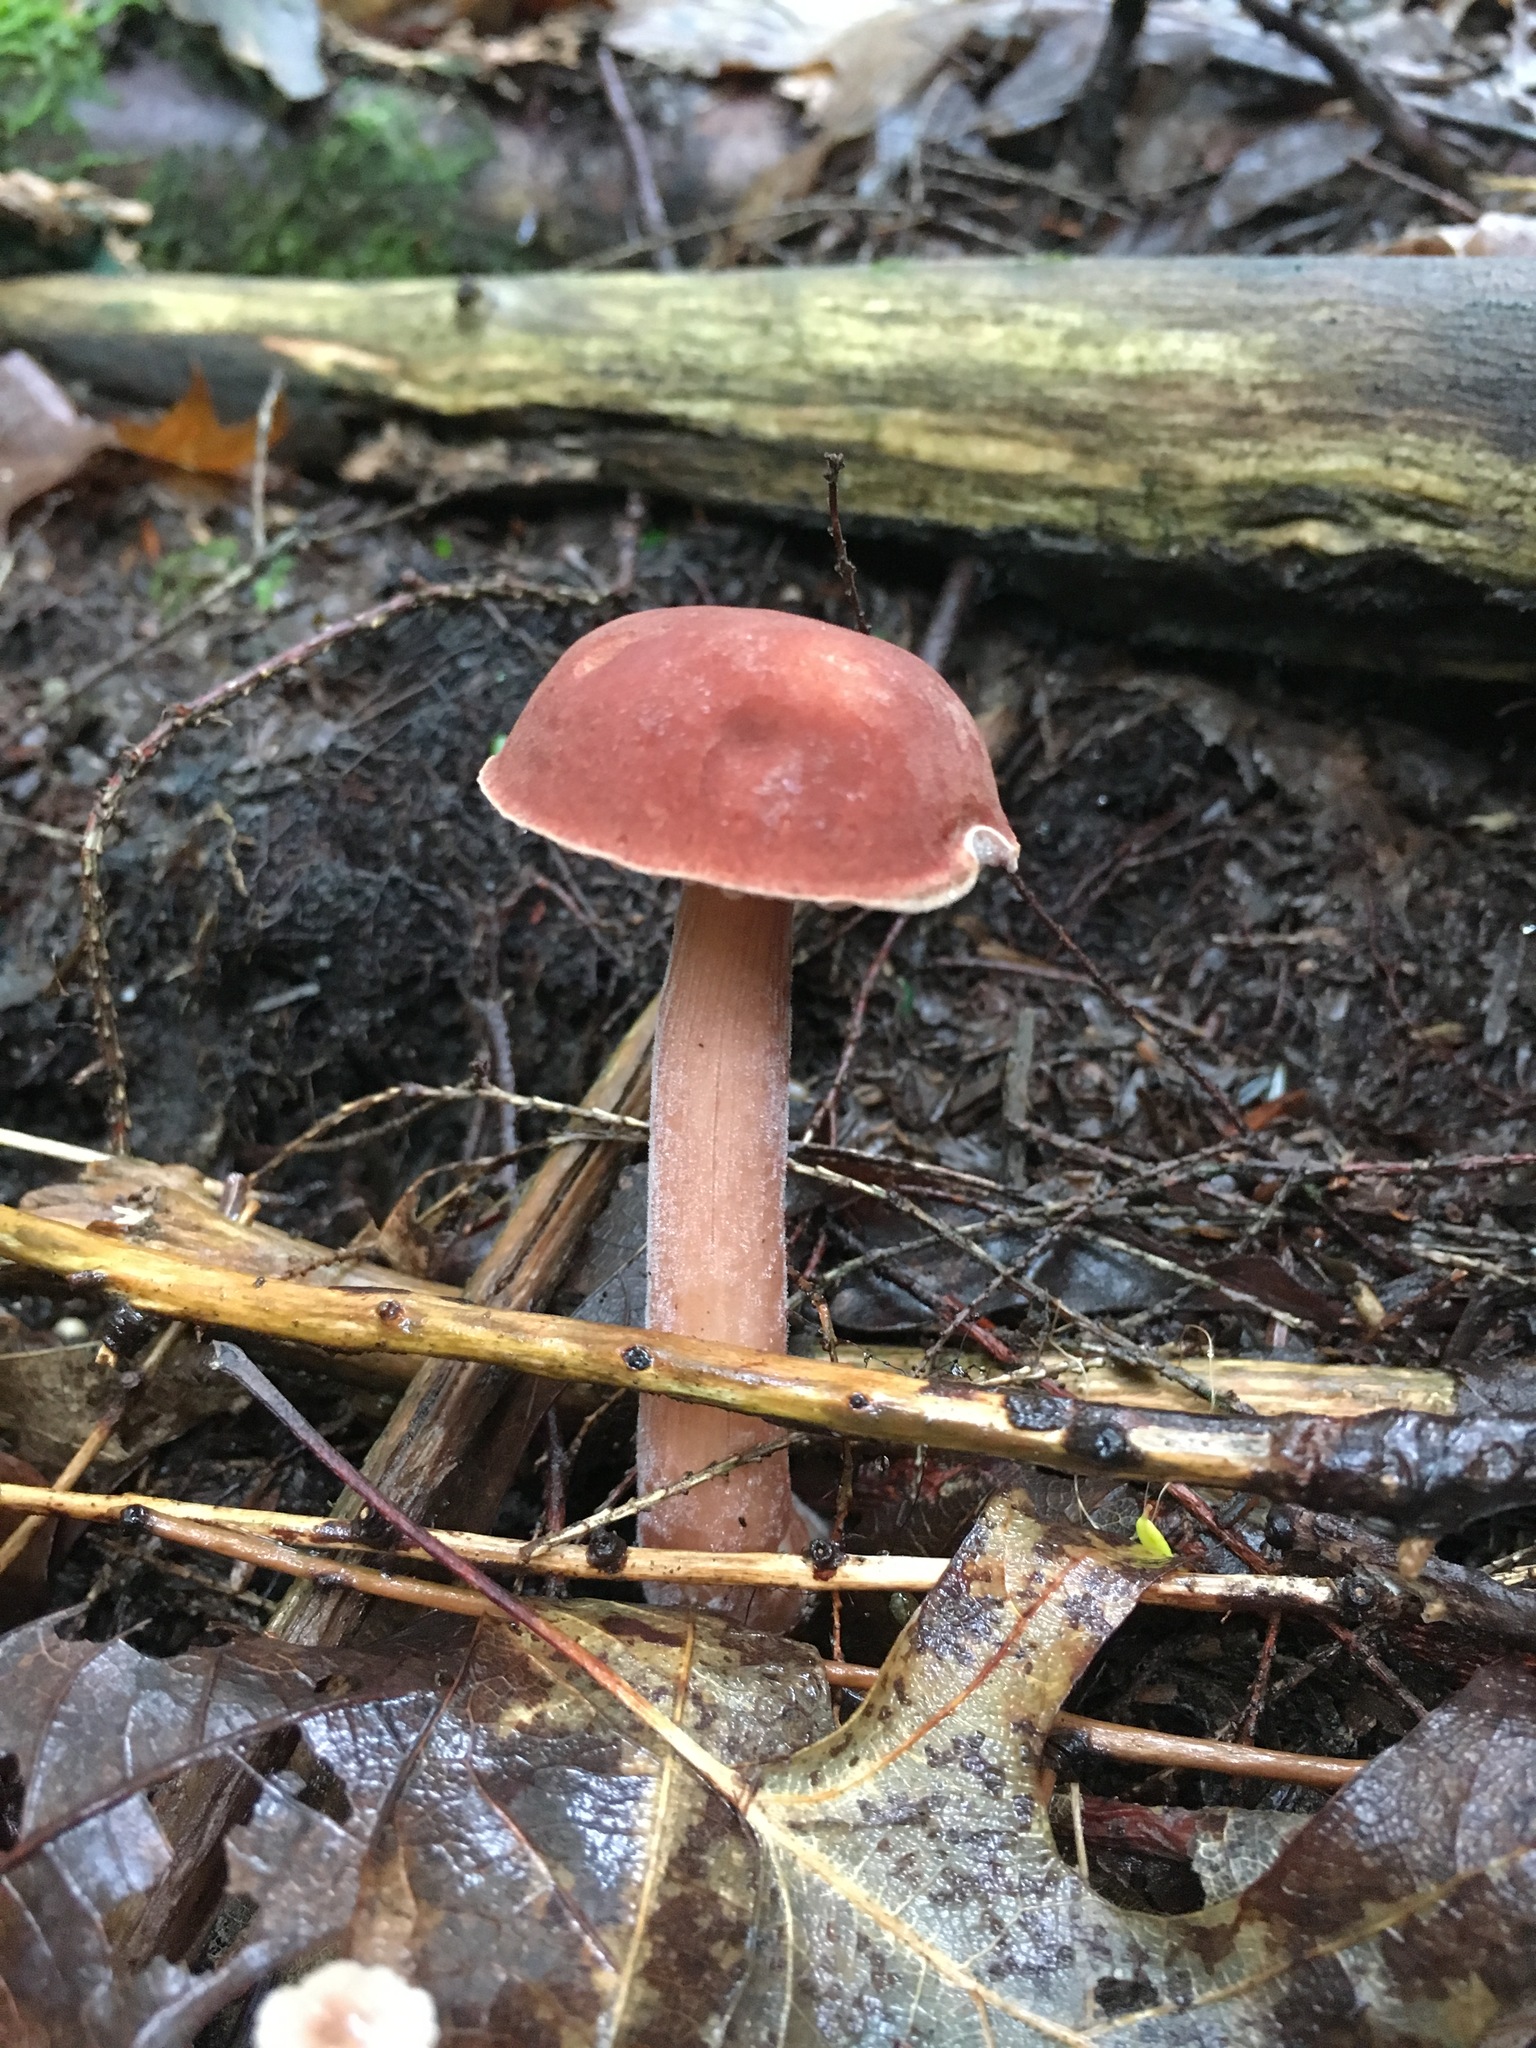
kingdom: Fungi
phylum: Basidiomycota
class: Agaricomycetes
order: Boletales
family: Boletaceae
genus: Austroboletus
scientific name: Austroboletus gracilis
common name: Graceful bolete
